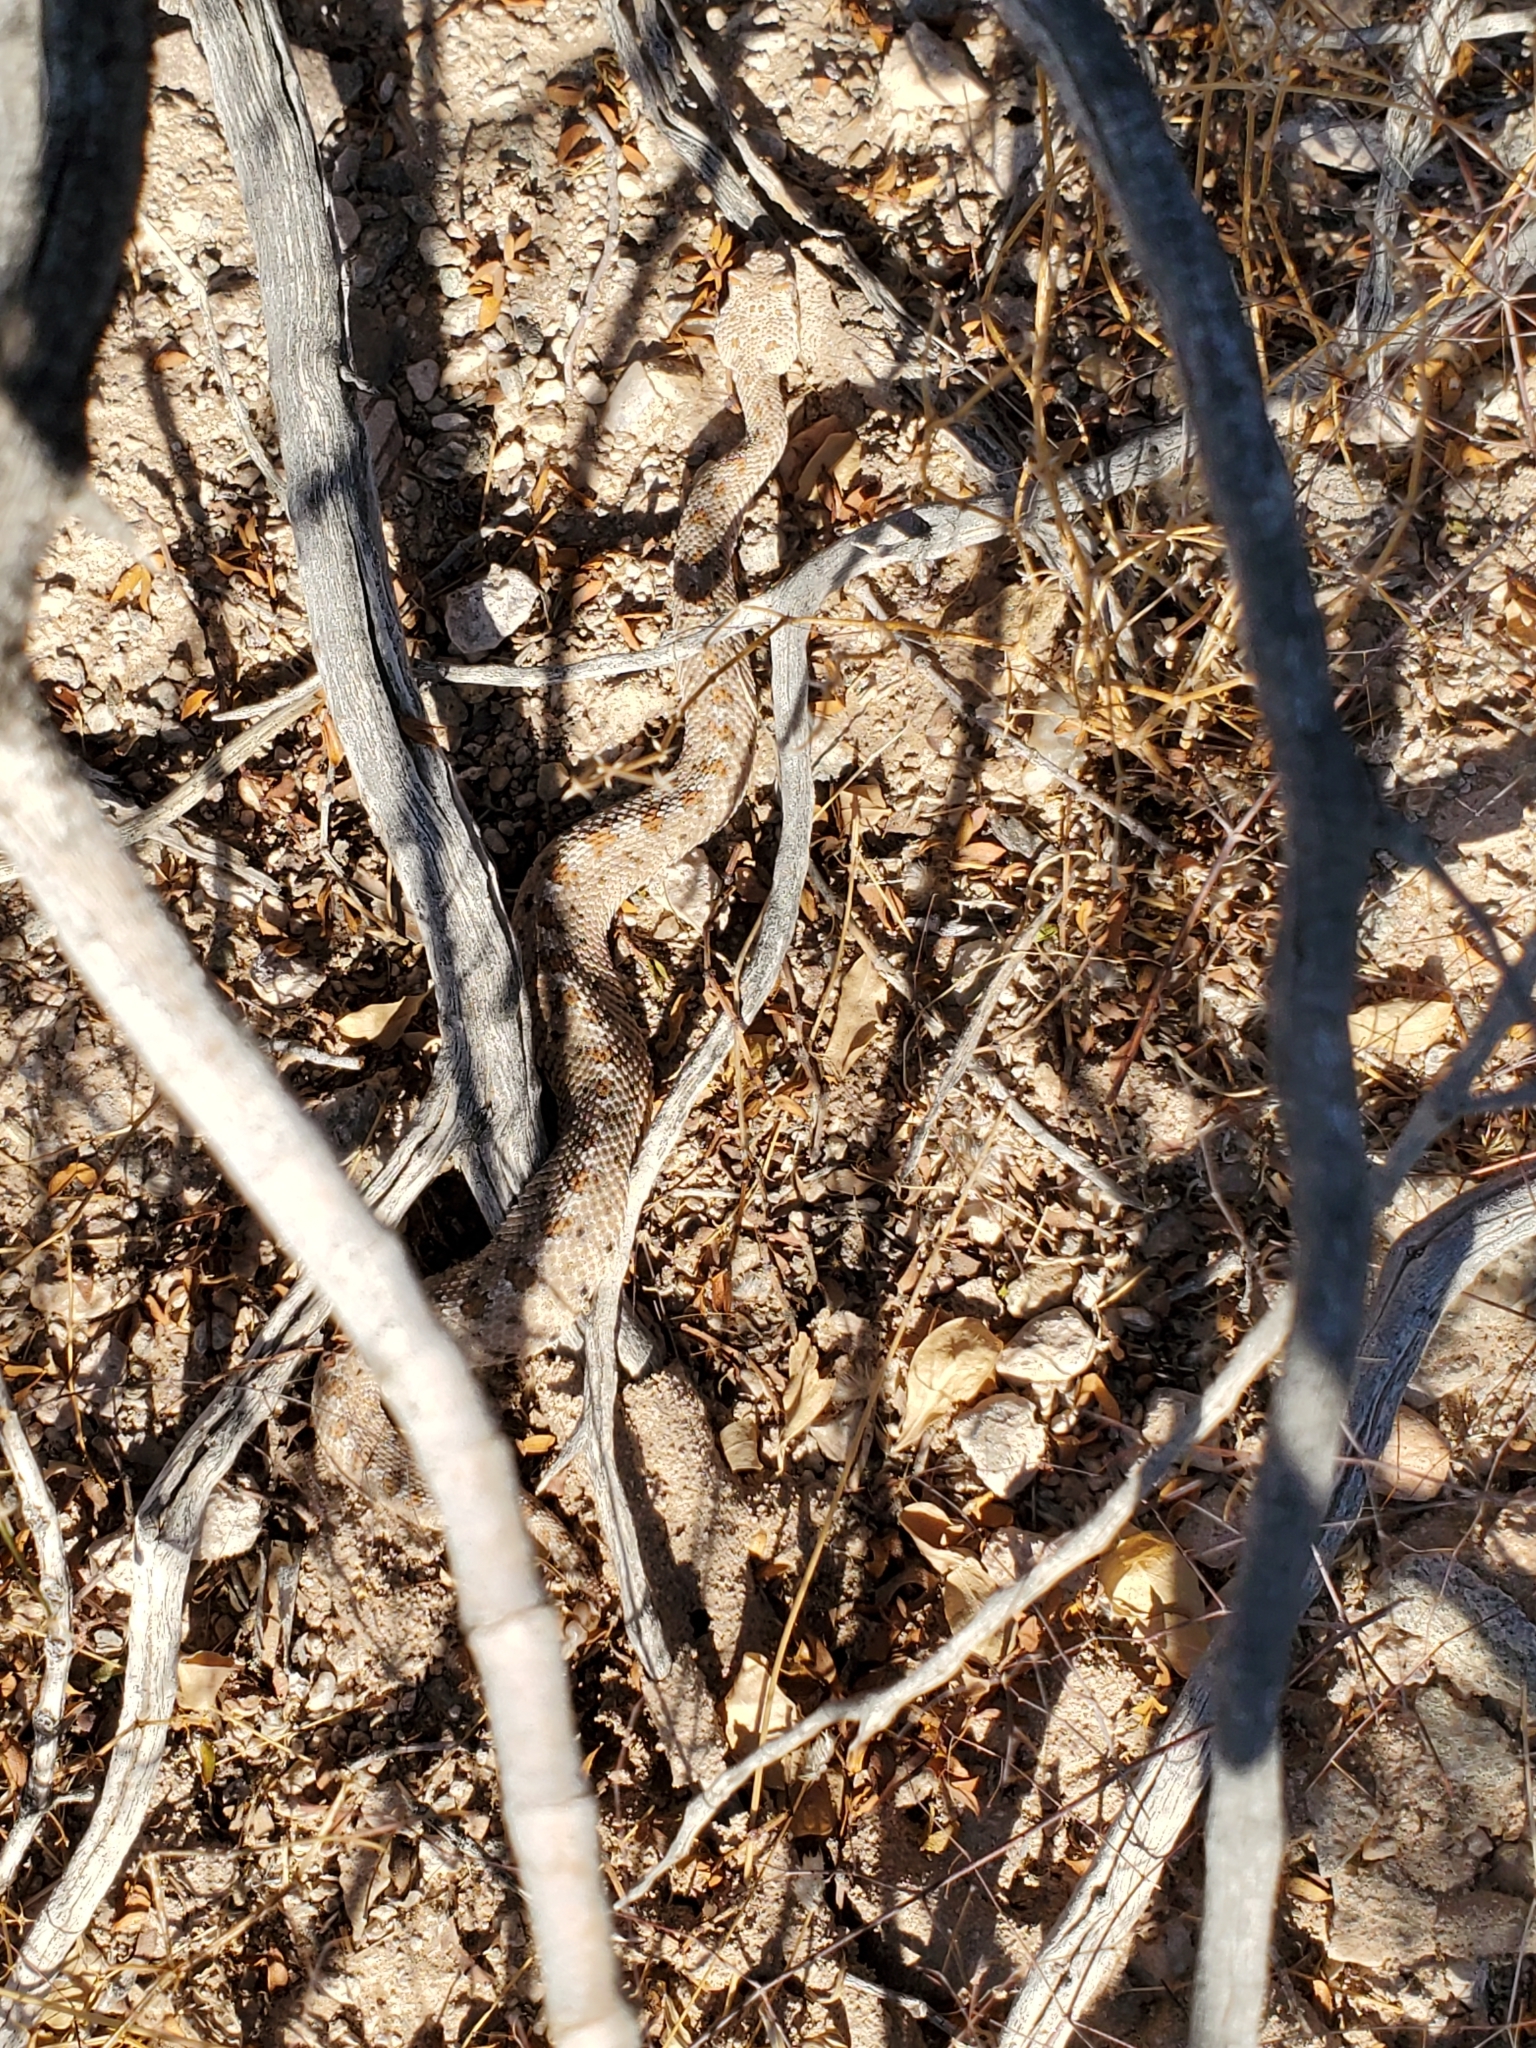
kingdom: Animalia
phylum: Chordata
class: Squamata
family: Viperidae
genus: Crotalus
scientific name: Crotalus cerastes
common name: Sidewinder
